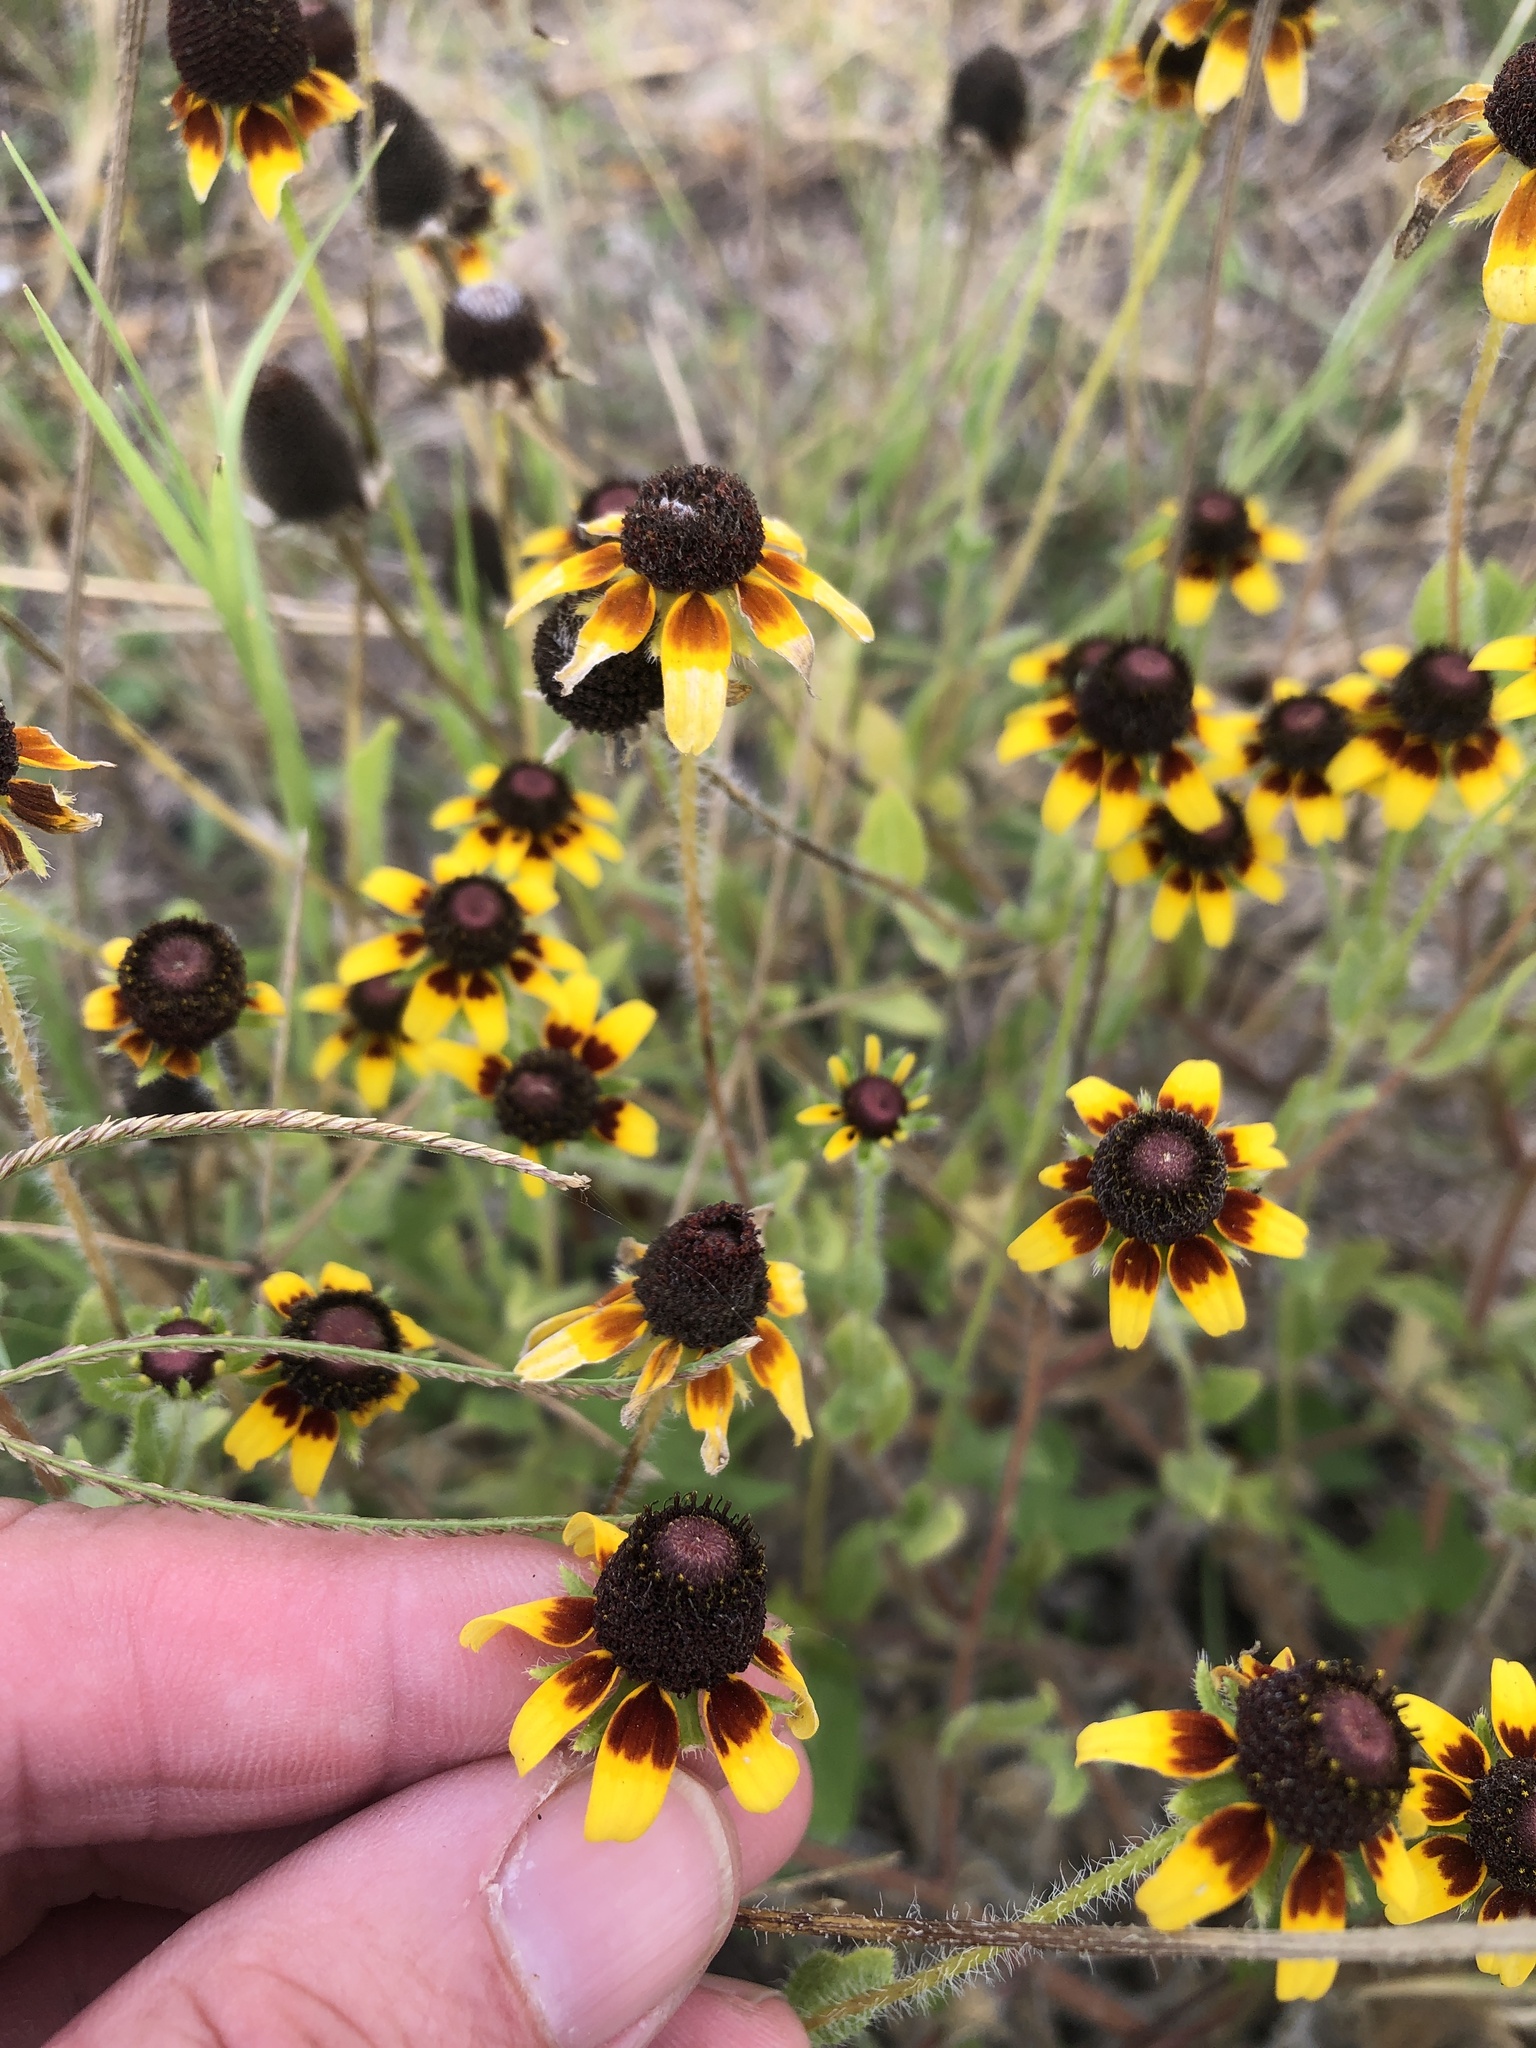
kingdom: Plantae
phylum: Tracheophyta
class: Magnoliopsida
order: Asterales
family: Asteraceae
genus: Rudbeckia
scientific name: Rudbeckia hirta
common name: Black-eyed-susan
